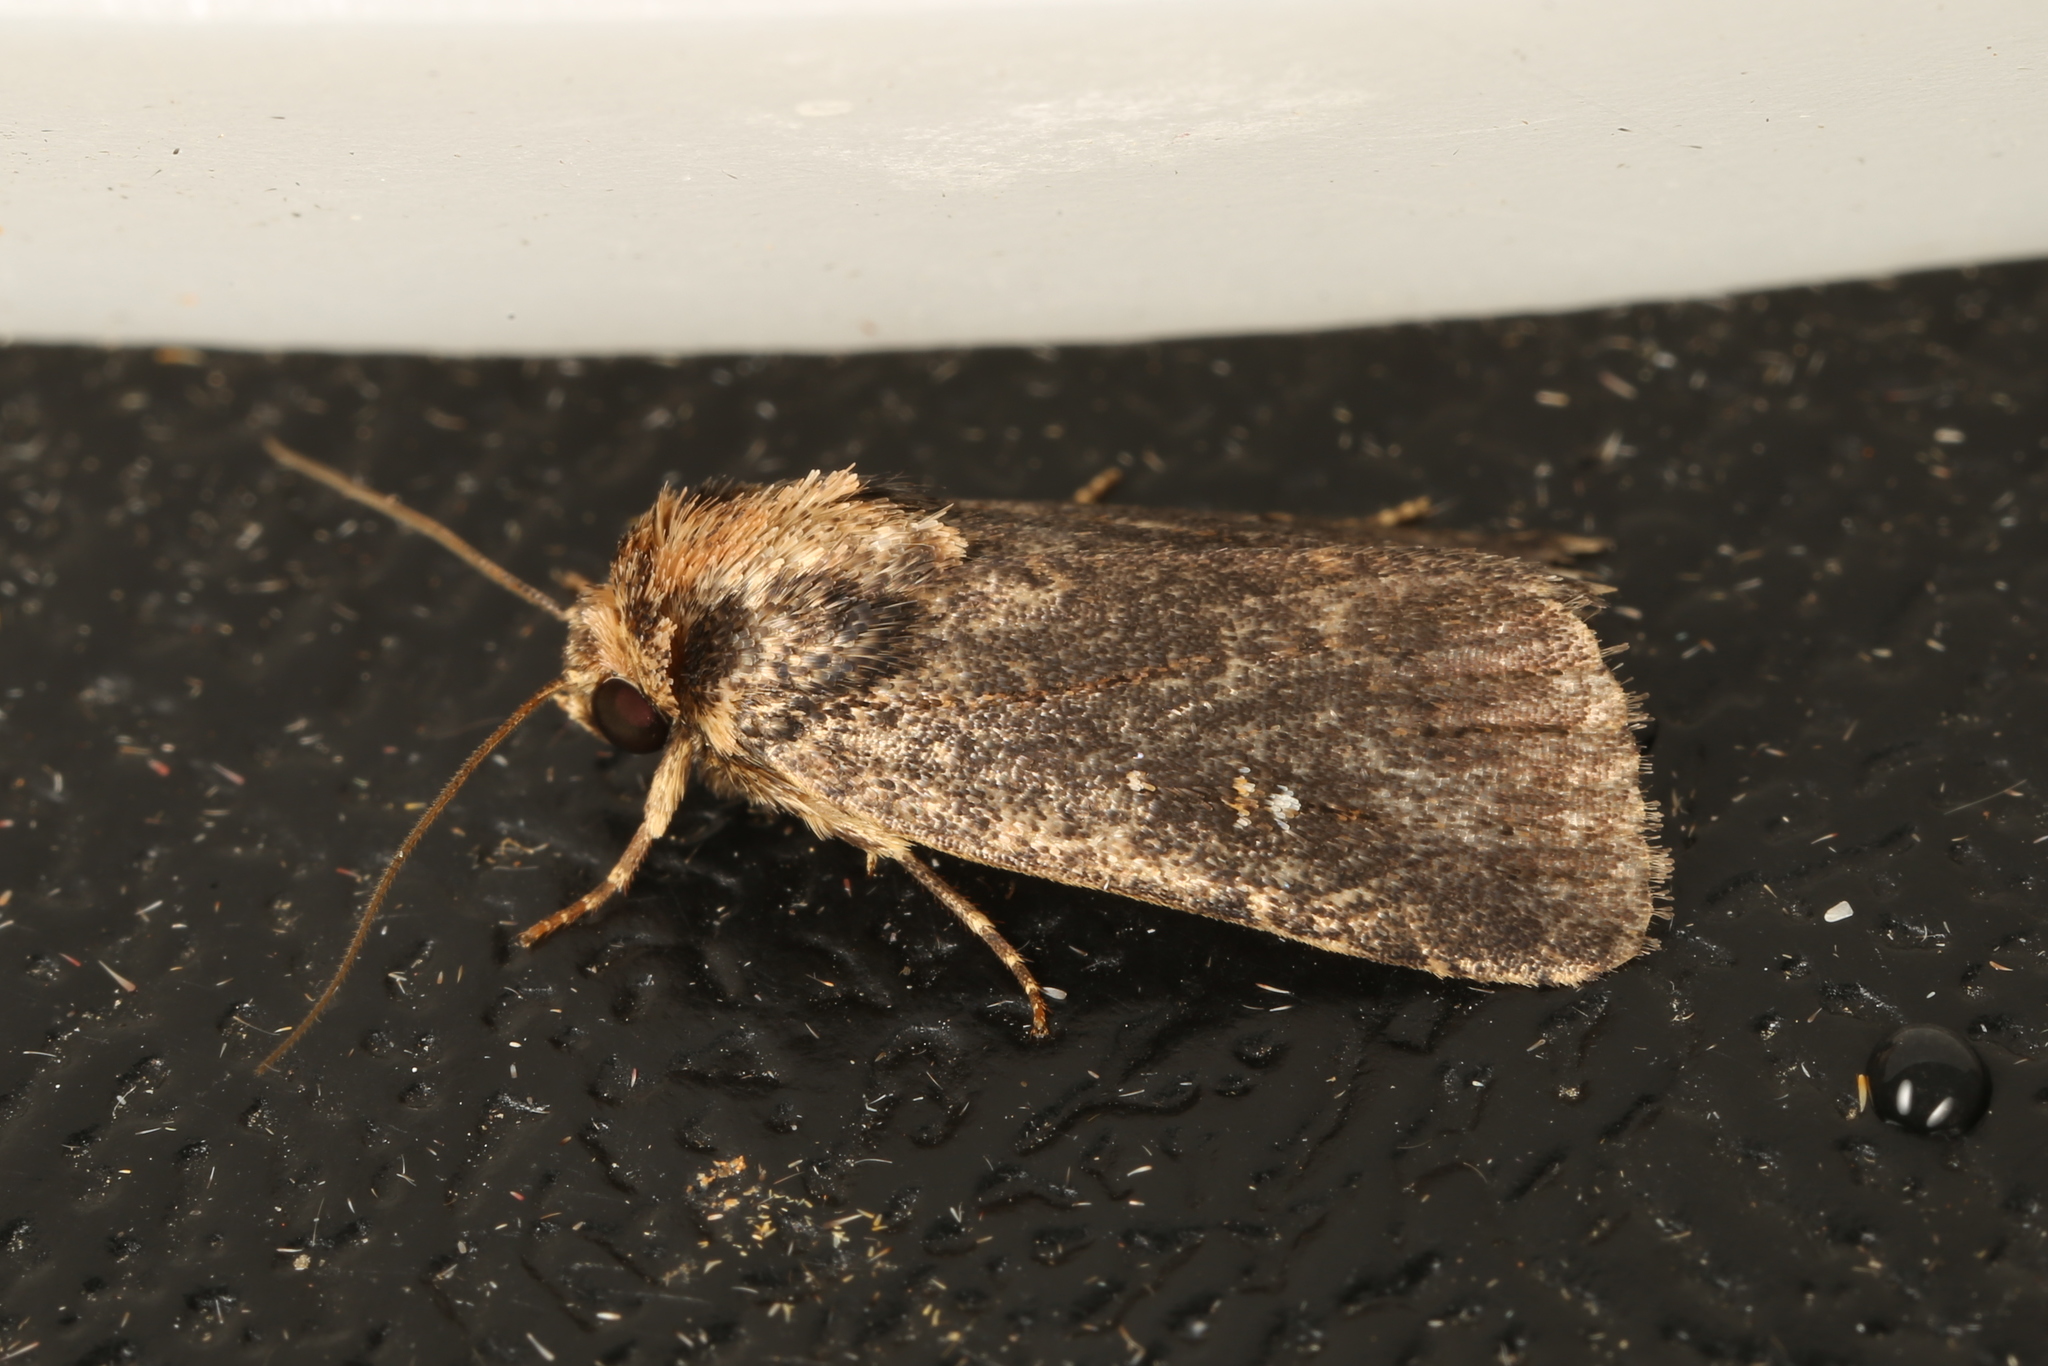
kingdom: Animalia
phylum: Arthropoda
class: Insecta
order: Lepidoptera
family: Noctuidae
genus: Proteuxoa
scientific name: Proteuxoa nyctereutica
